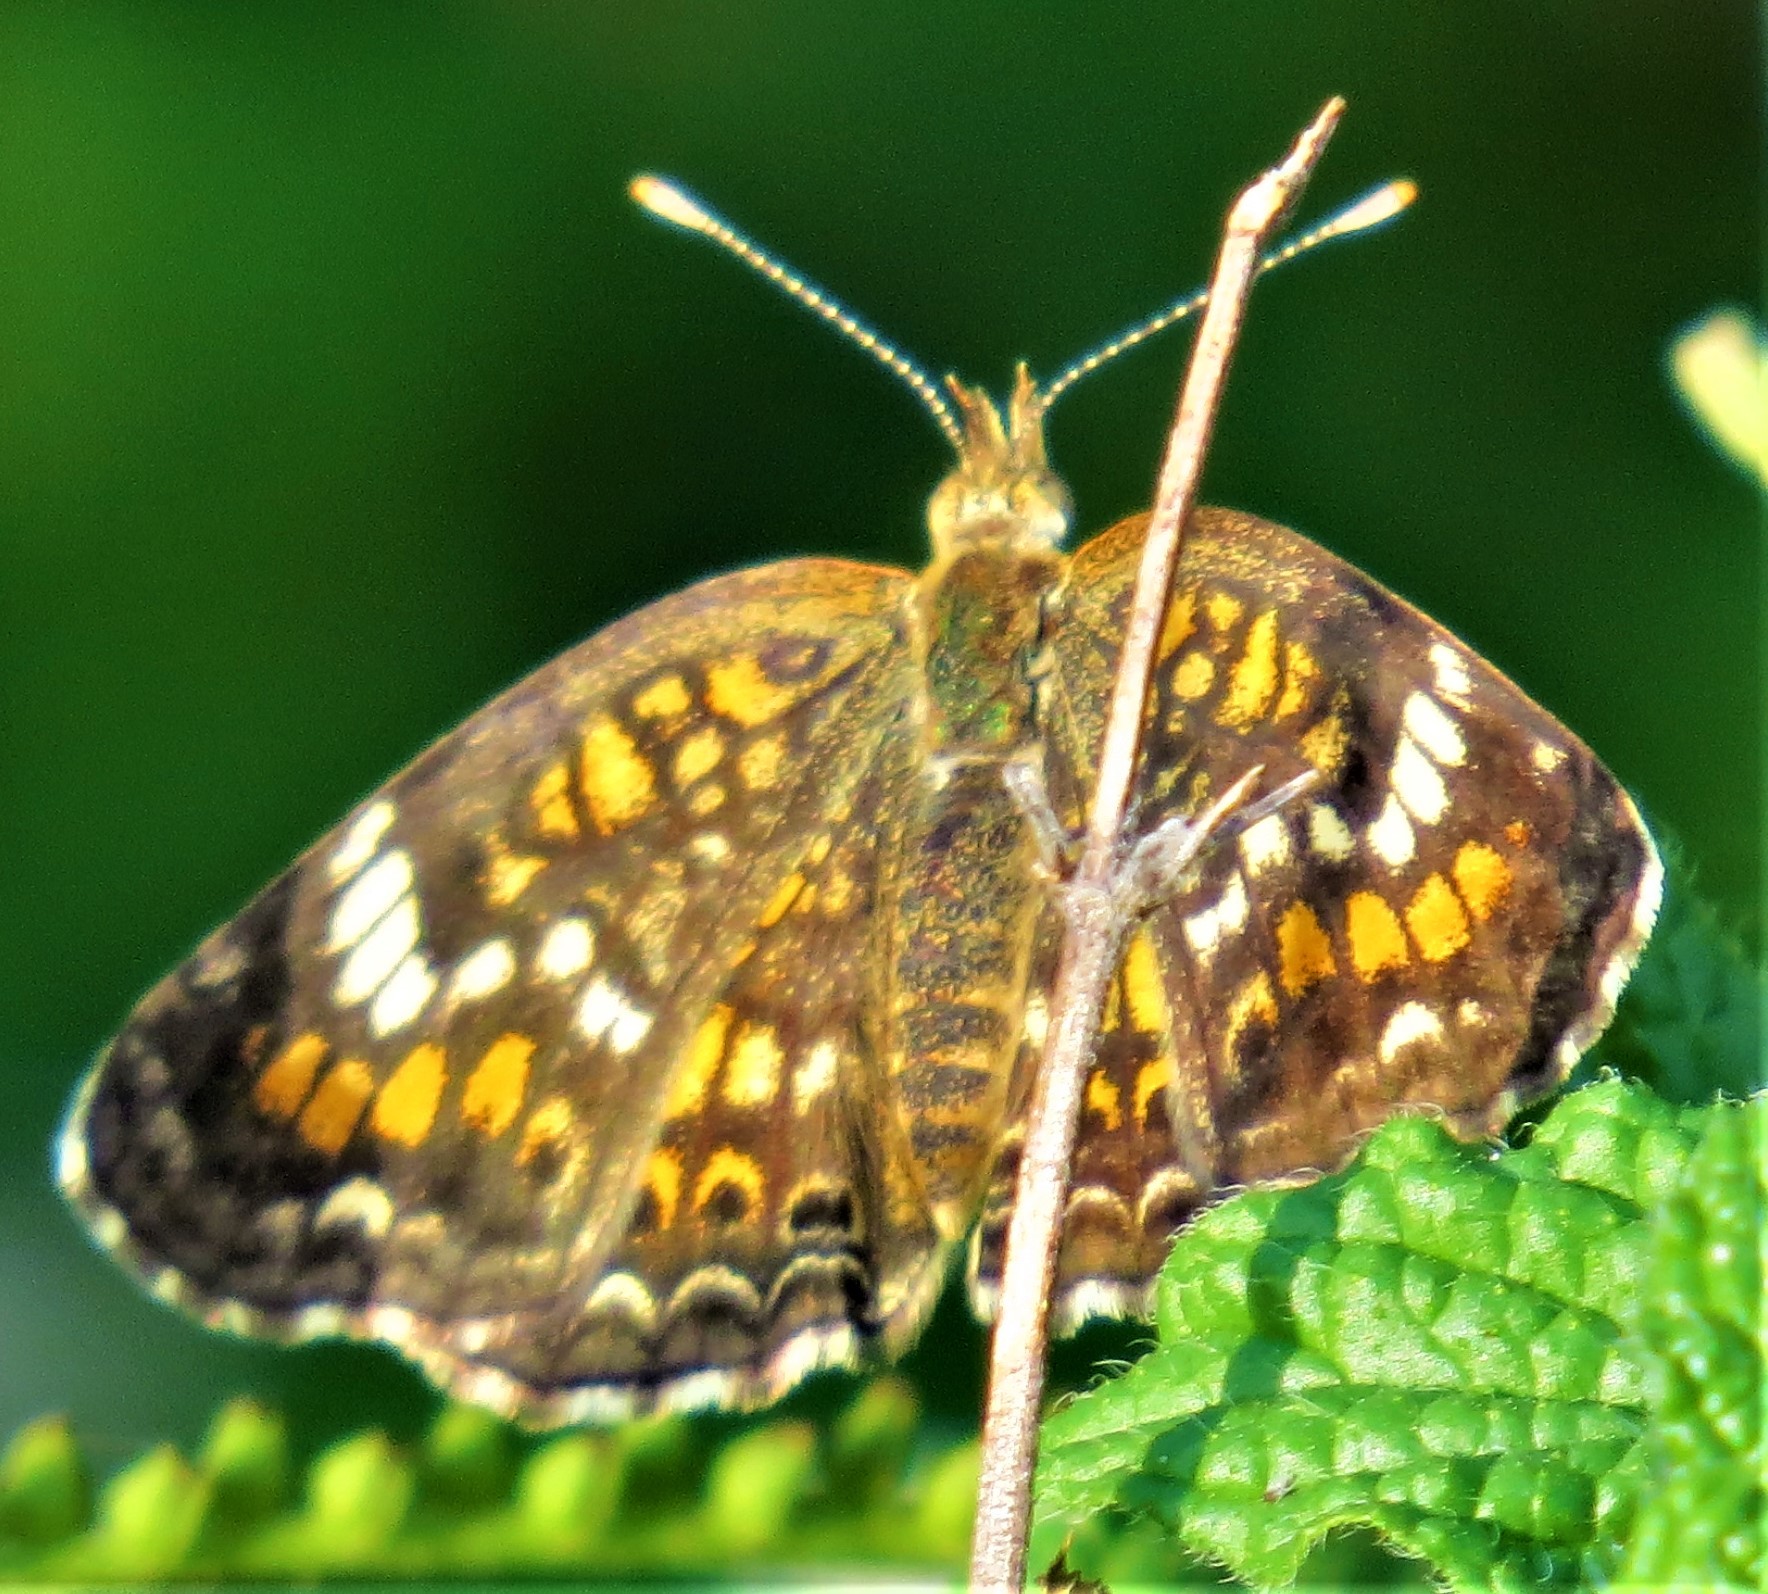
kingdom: Animalia
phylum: Arthropoda
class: Insecta
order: Lepidoptera
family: Nymphalidae
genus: Phyciodes
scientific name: Phyciodes phaon
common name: Phaon crescent
